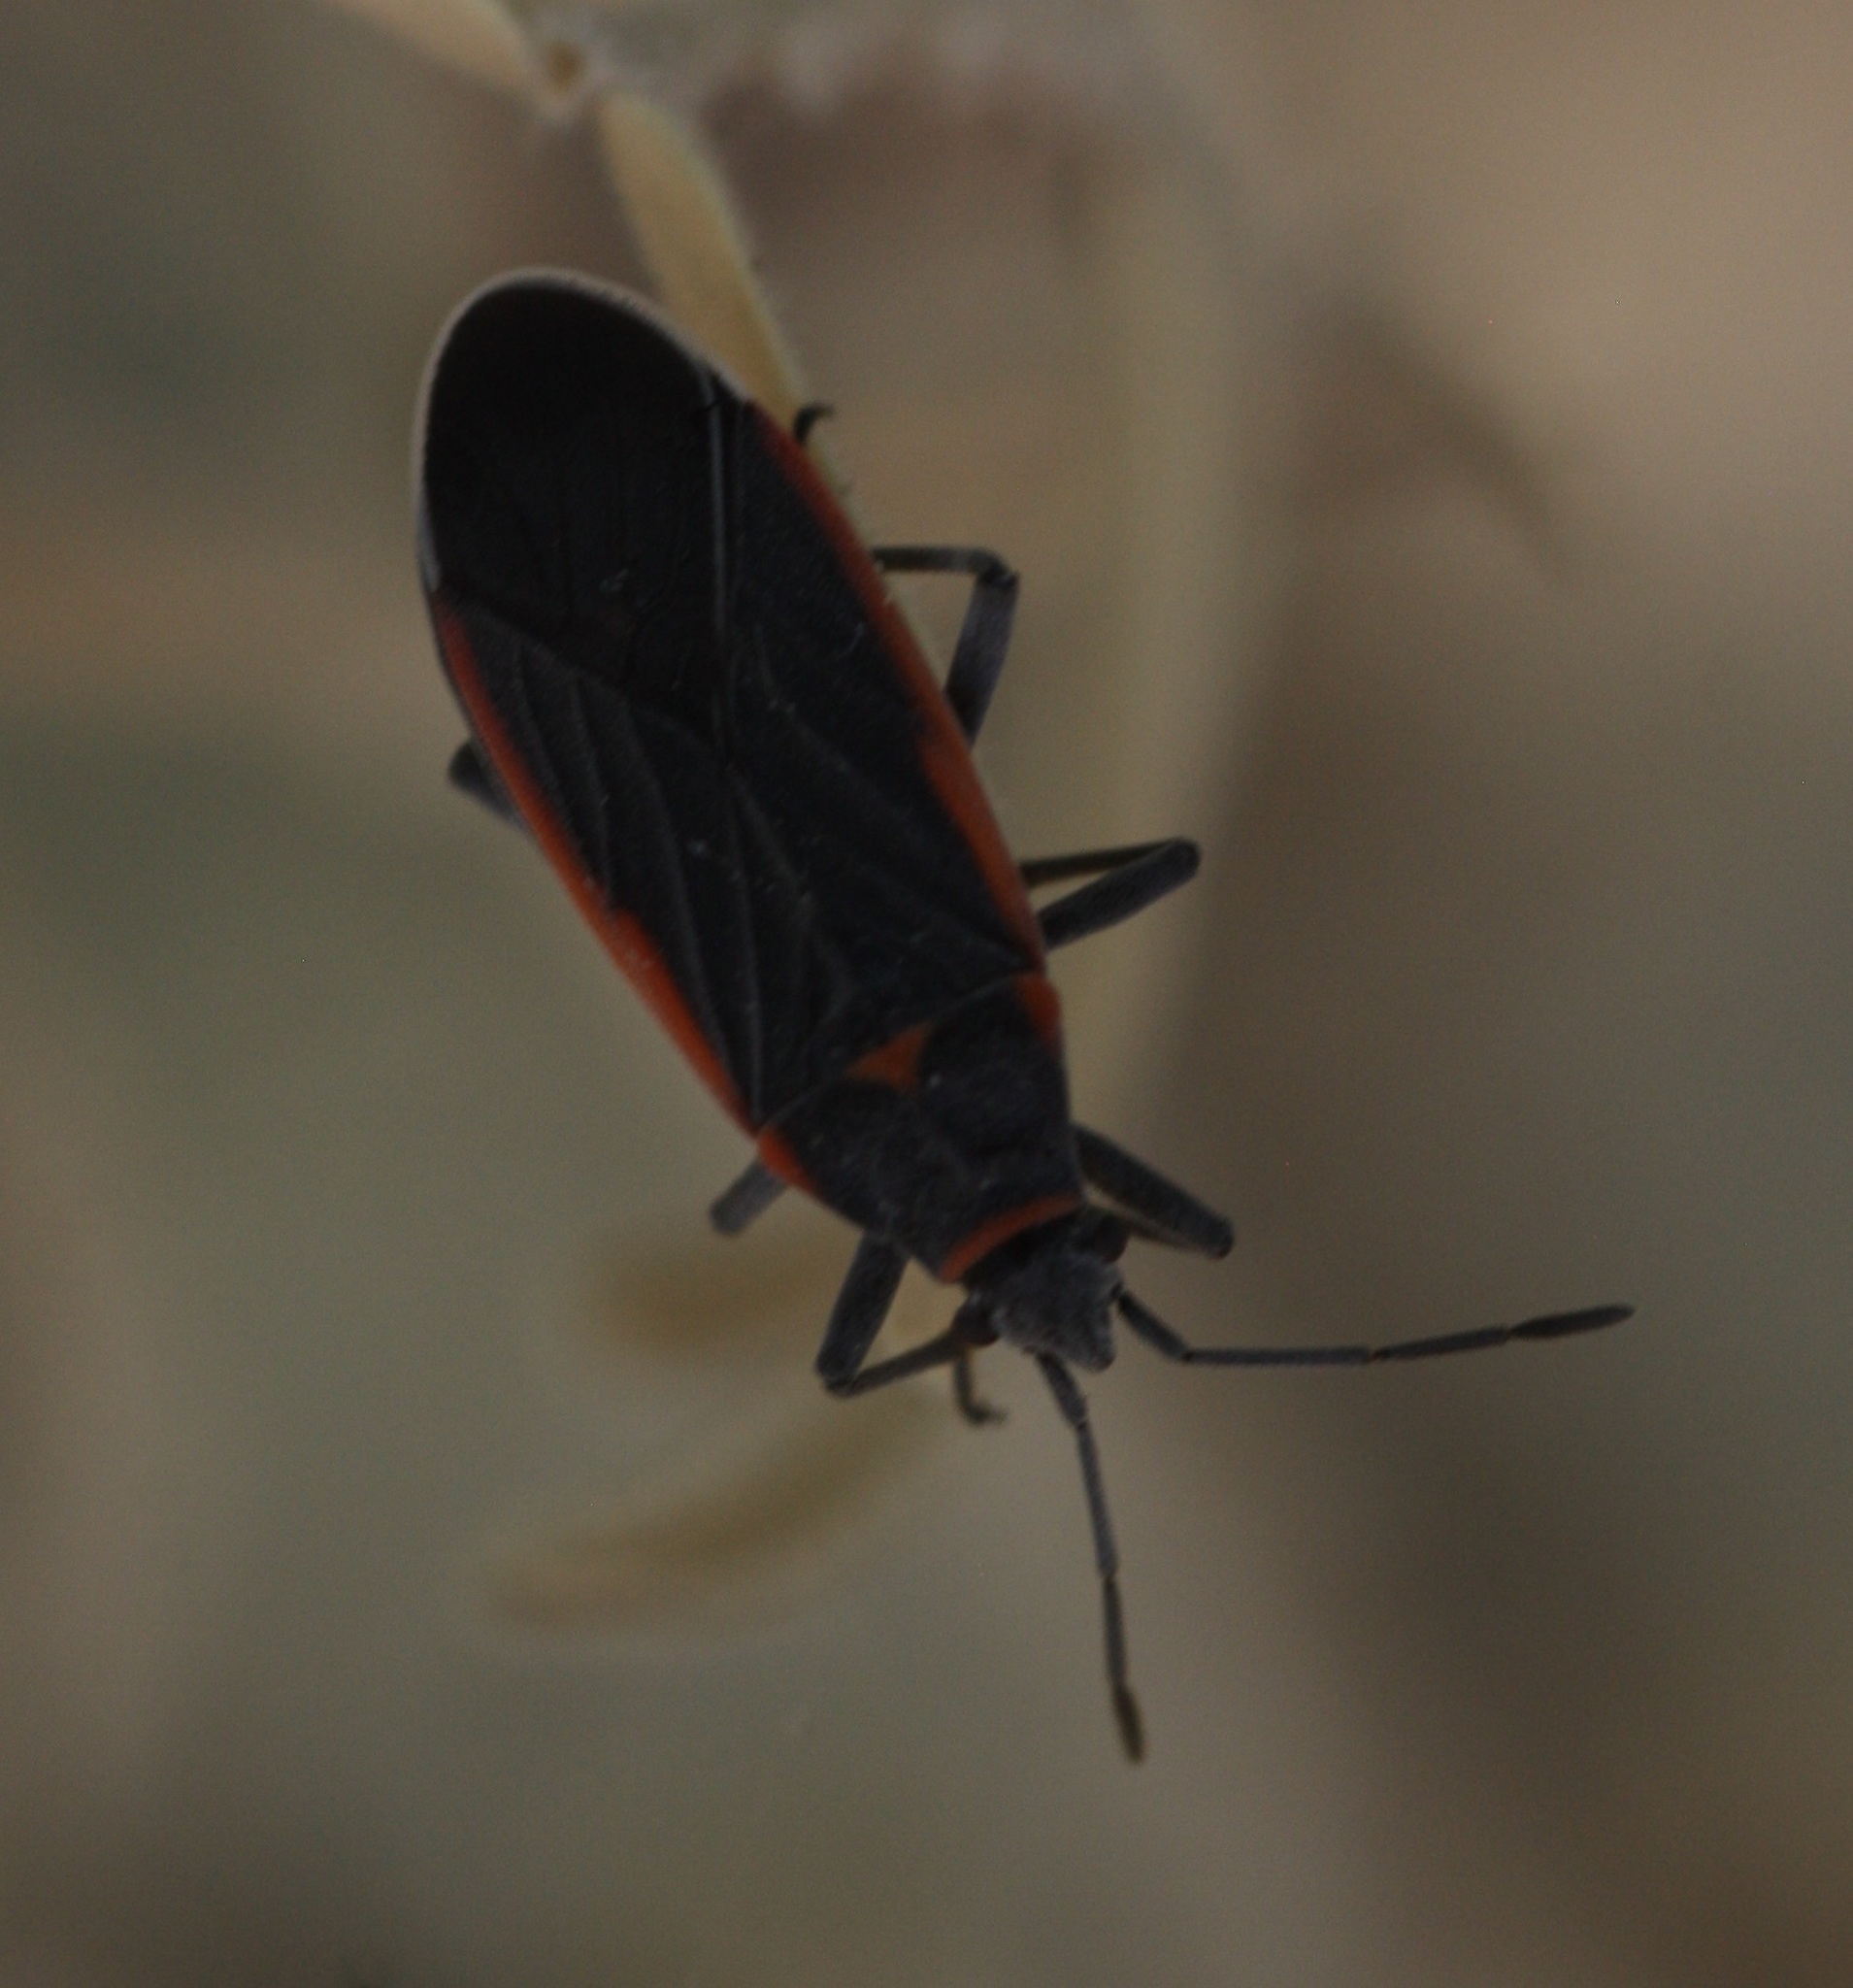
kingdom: Animalia
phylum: Arthropoda
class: Insecta
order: Hemiptera
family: Lygaeidae
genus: Melacoryphus
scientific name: Melacoryphus lateralis
